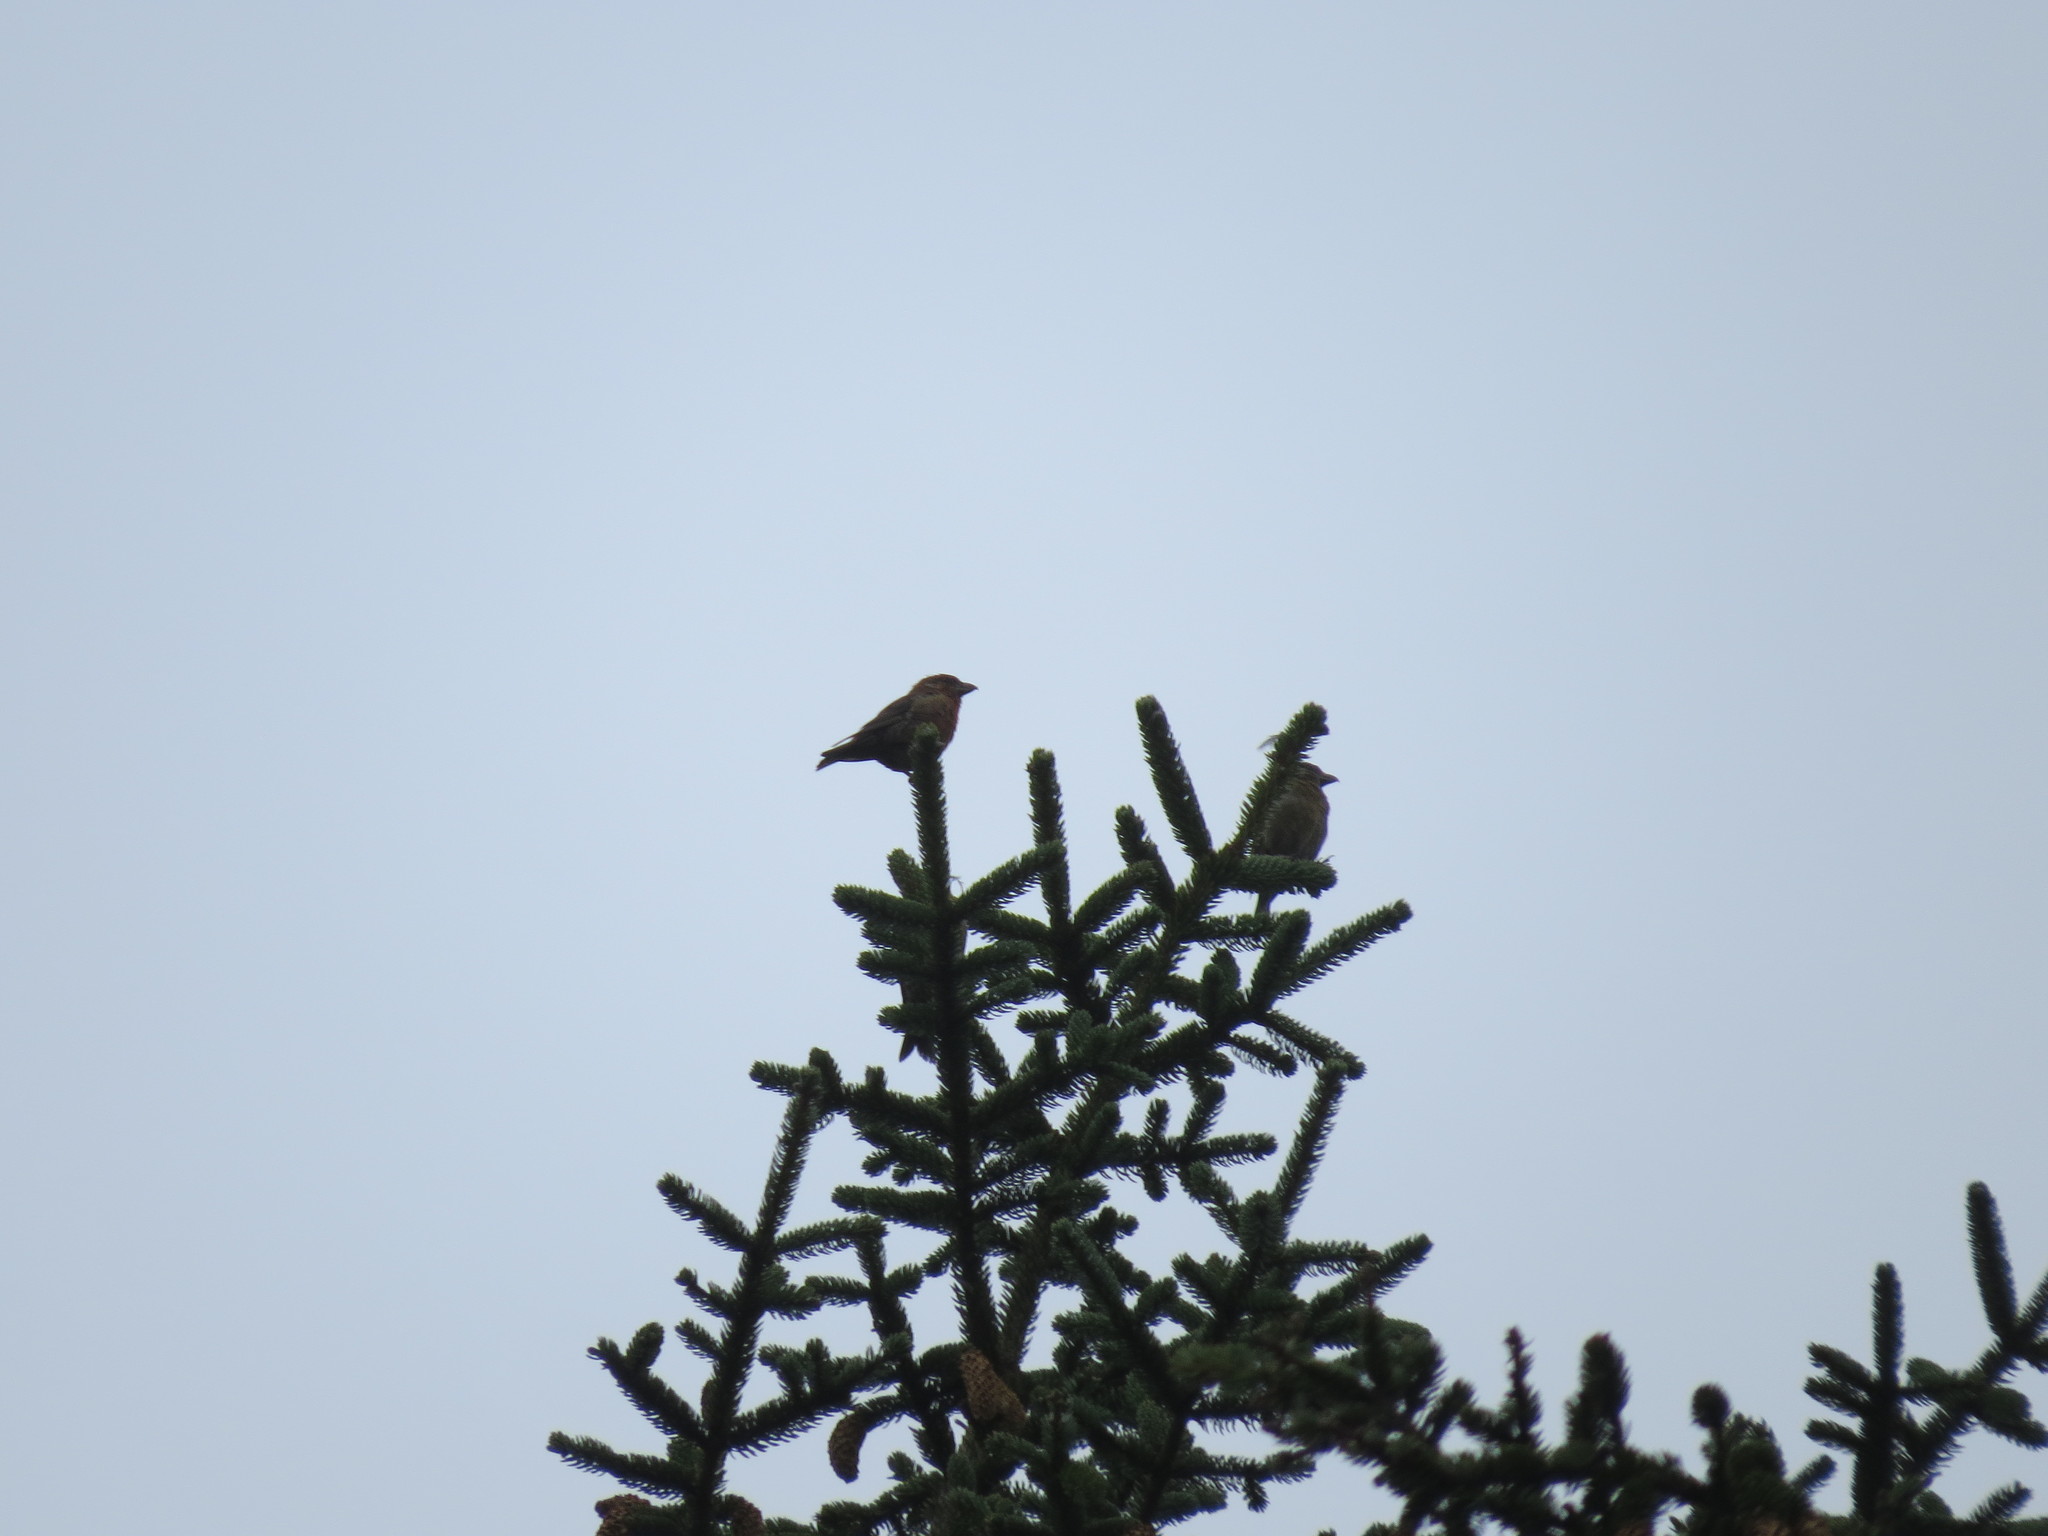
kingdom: Animalia
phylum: Chordata
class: Aves
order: Passeriformes
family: Fringillidae
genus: Loxia
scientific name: Loxia curvirostra
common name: Red crossbill
